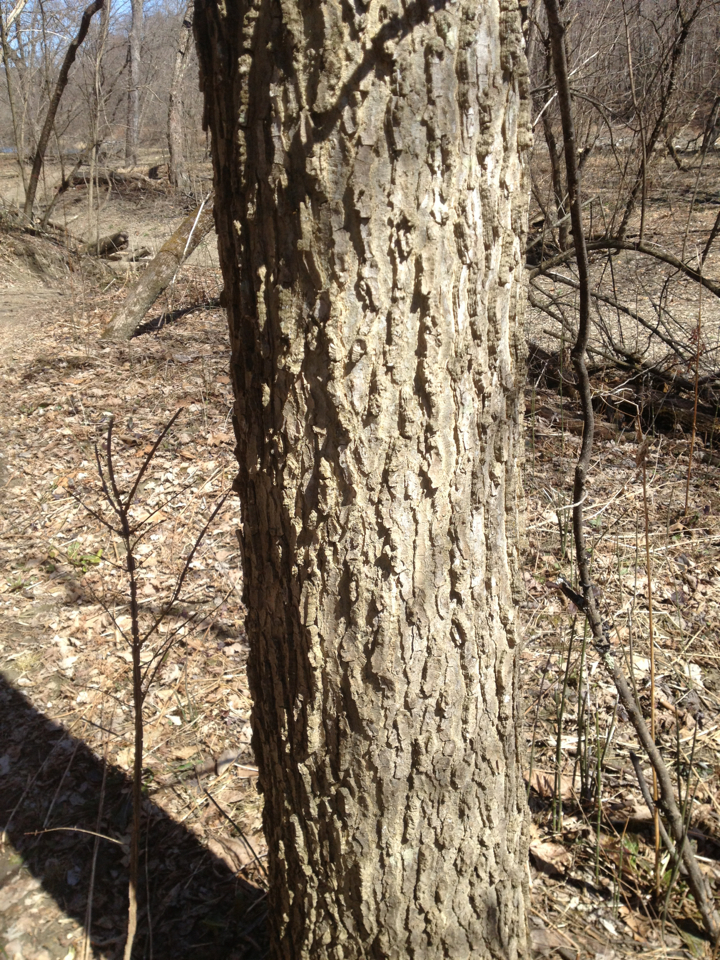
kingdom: Plantae
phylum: Tracheophyta
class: Magnoliopsida
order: Rosales
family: Cannabaceae
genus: Celtis
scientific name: Celtis occidentalis
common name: Common hackberry
